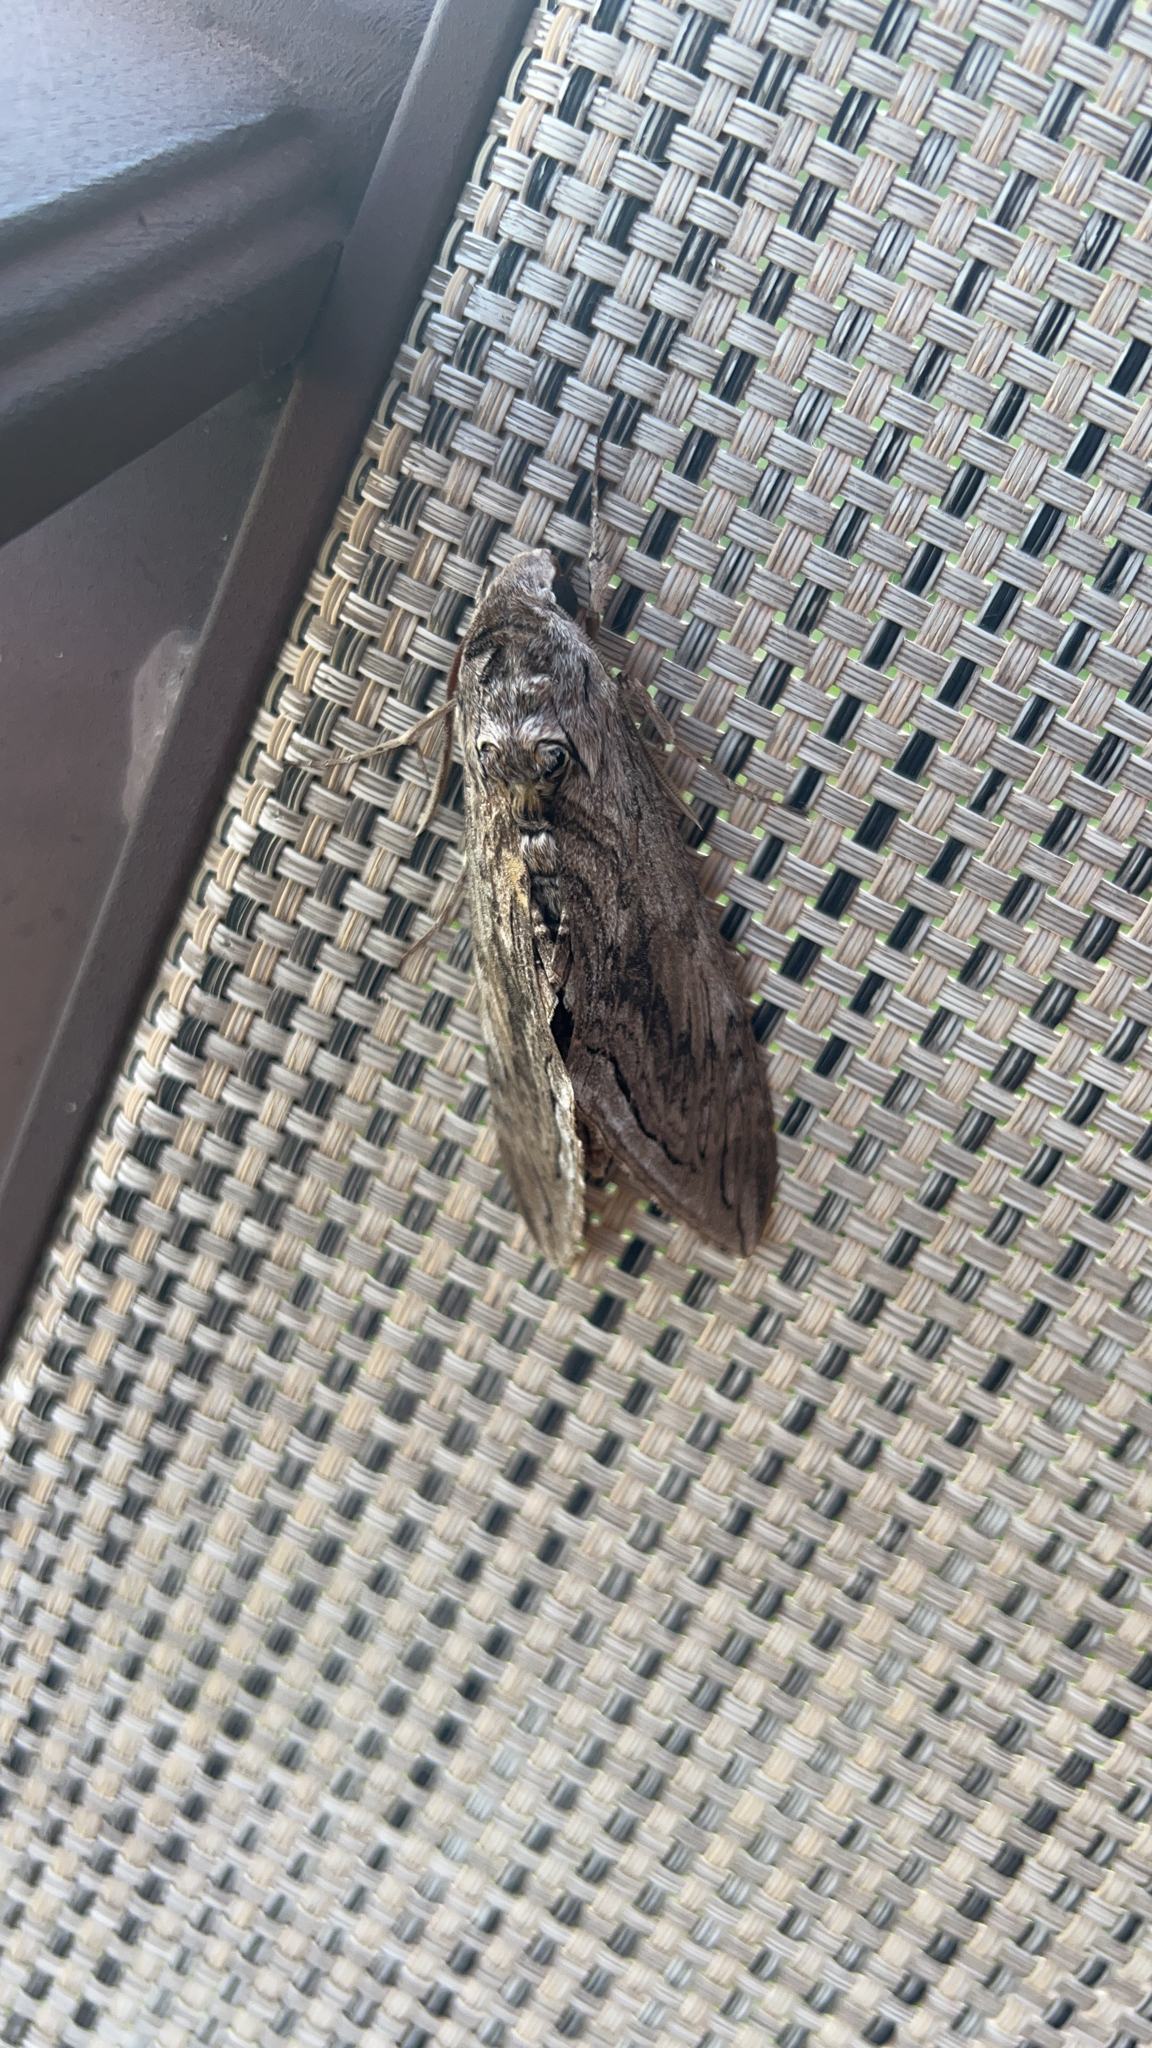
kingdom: Animalia
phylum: Arthropoda
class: Insecta
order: Lepidoptera
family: Sphingidae
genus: Manduca
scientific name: Manduca quinquemaculatus
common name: Five-spotted hawk-moth
